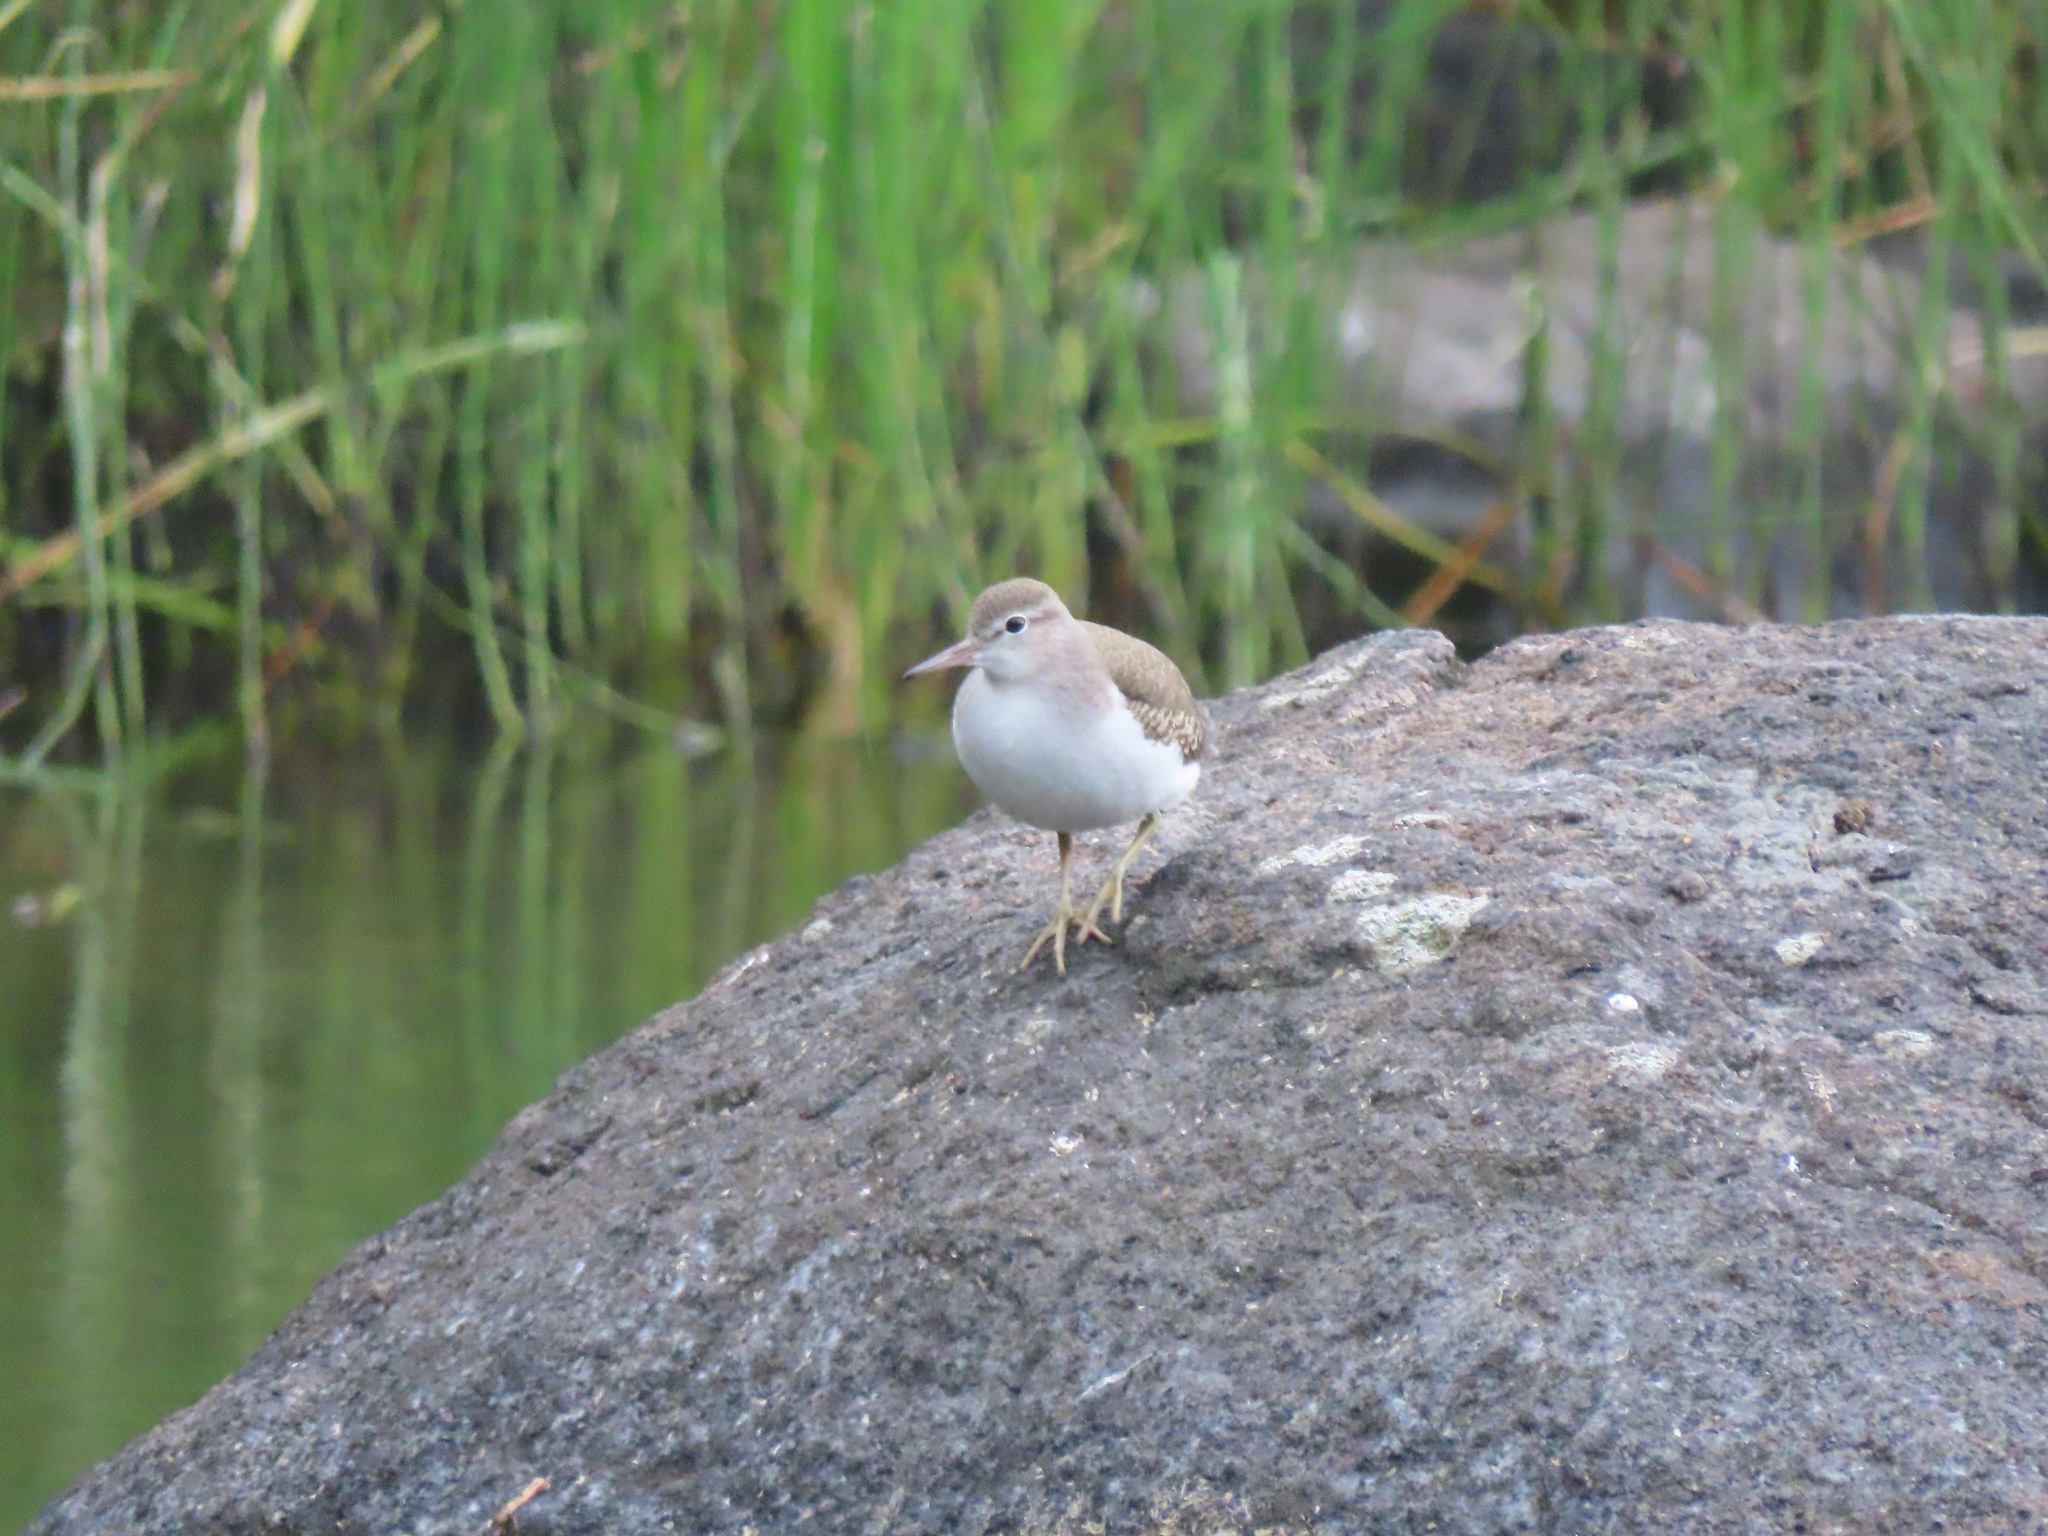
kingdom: Animalia
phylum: Chordata
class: Aves
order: Charadriiformes
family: Scolopacidae
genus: Actitis
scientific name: Actitis macularius
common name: Spotted sandpiper
